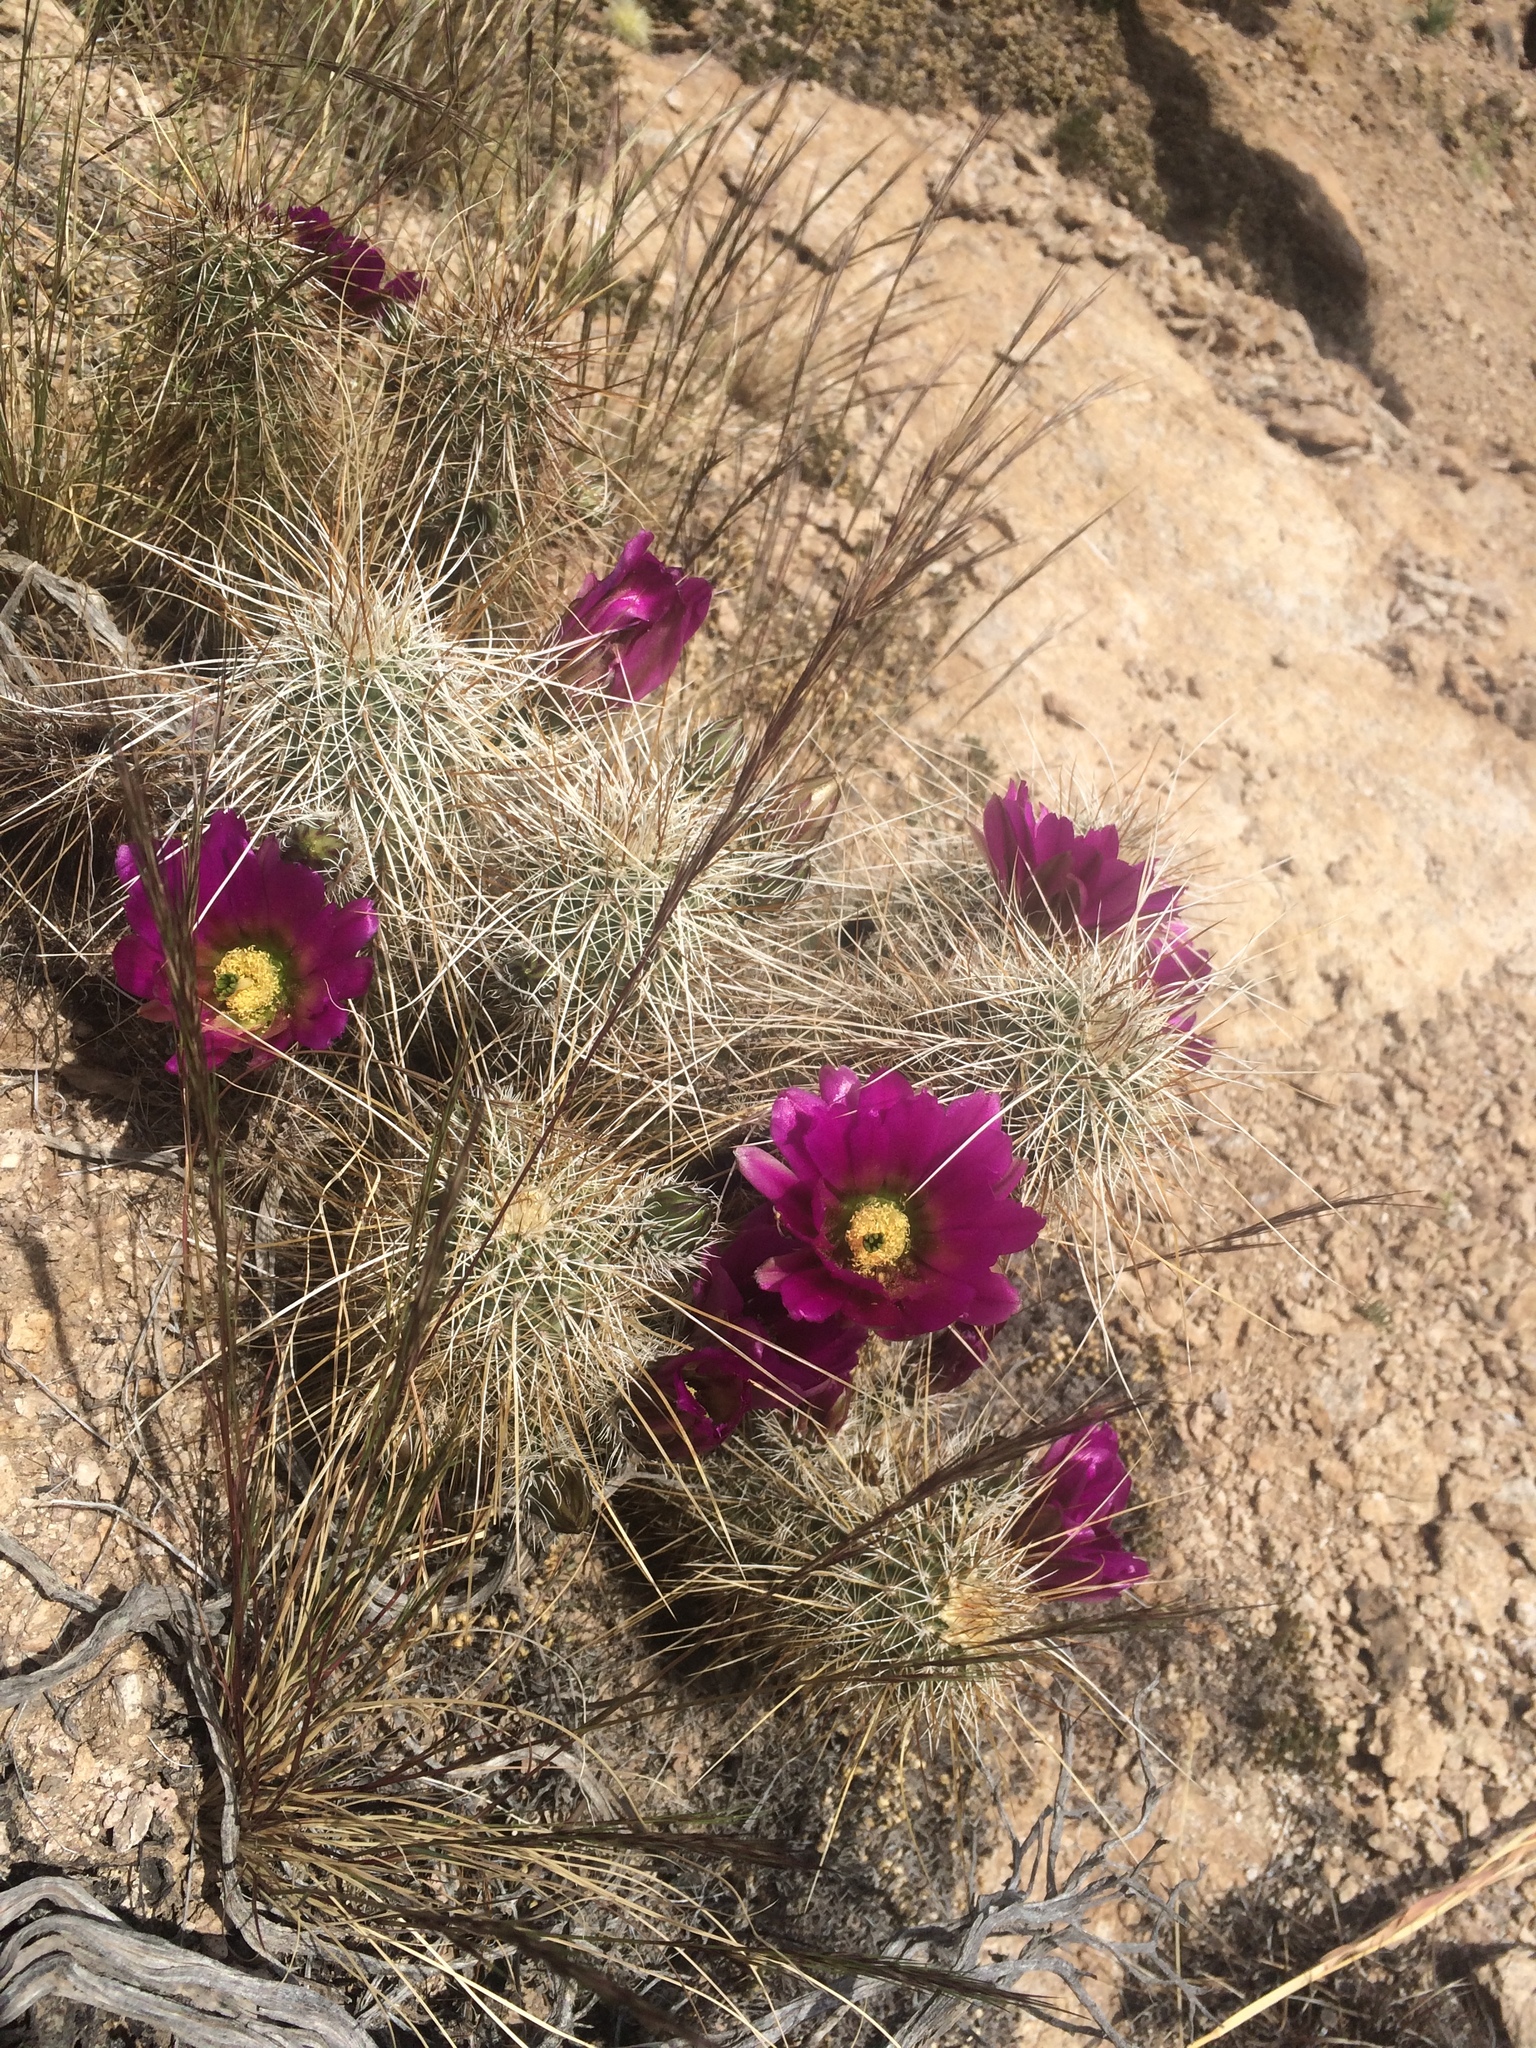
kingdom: Plantae
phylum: Tracheophyta
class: Magnoliopsida
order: Caryophyllales
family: Cactaceae
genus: Echinocereus
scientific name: Echinocereus bonkerae
